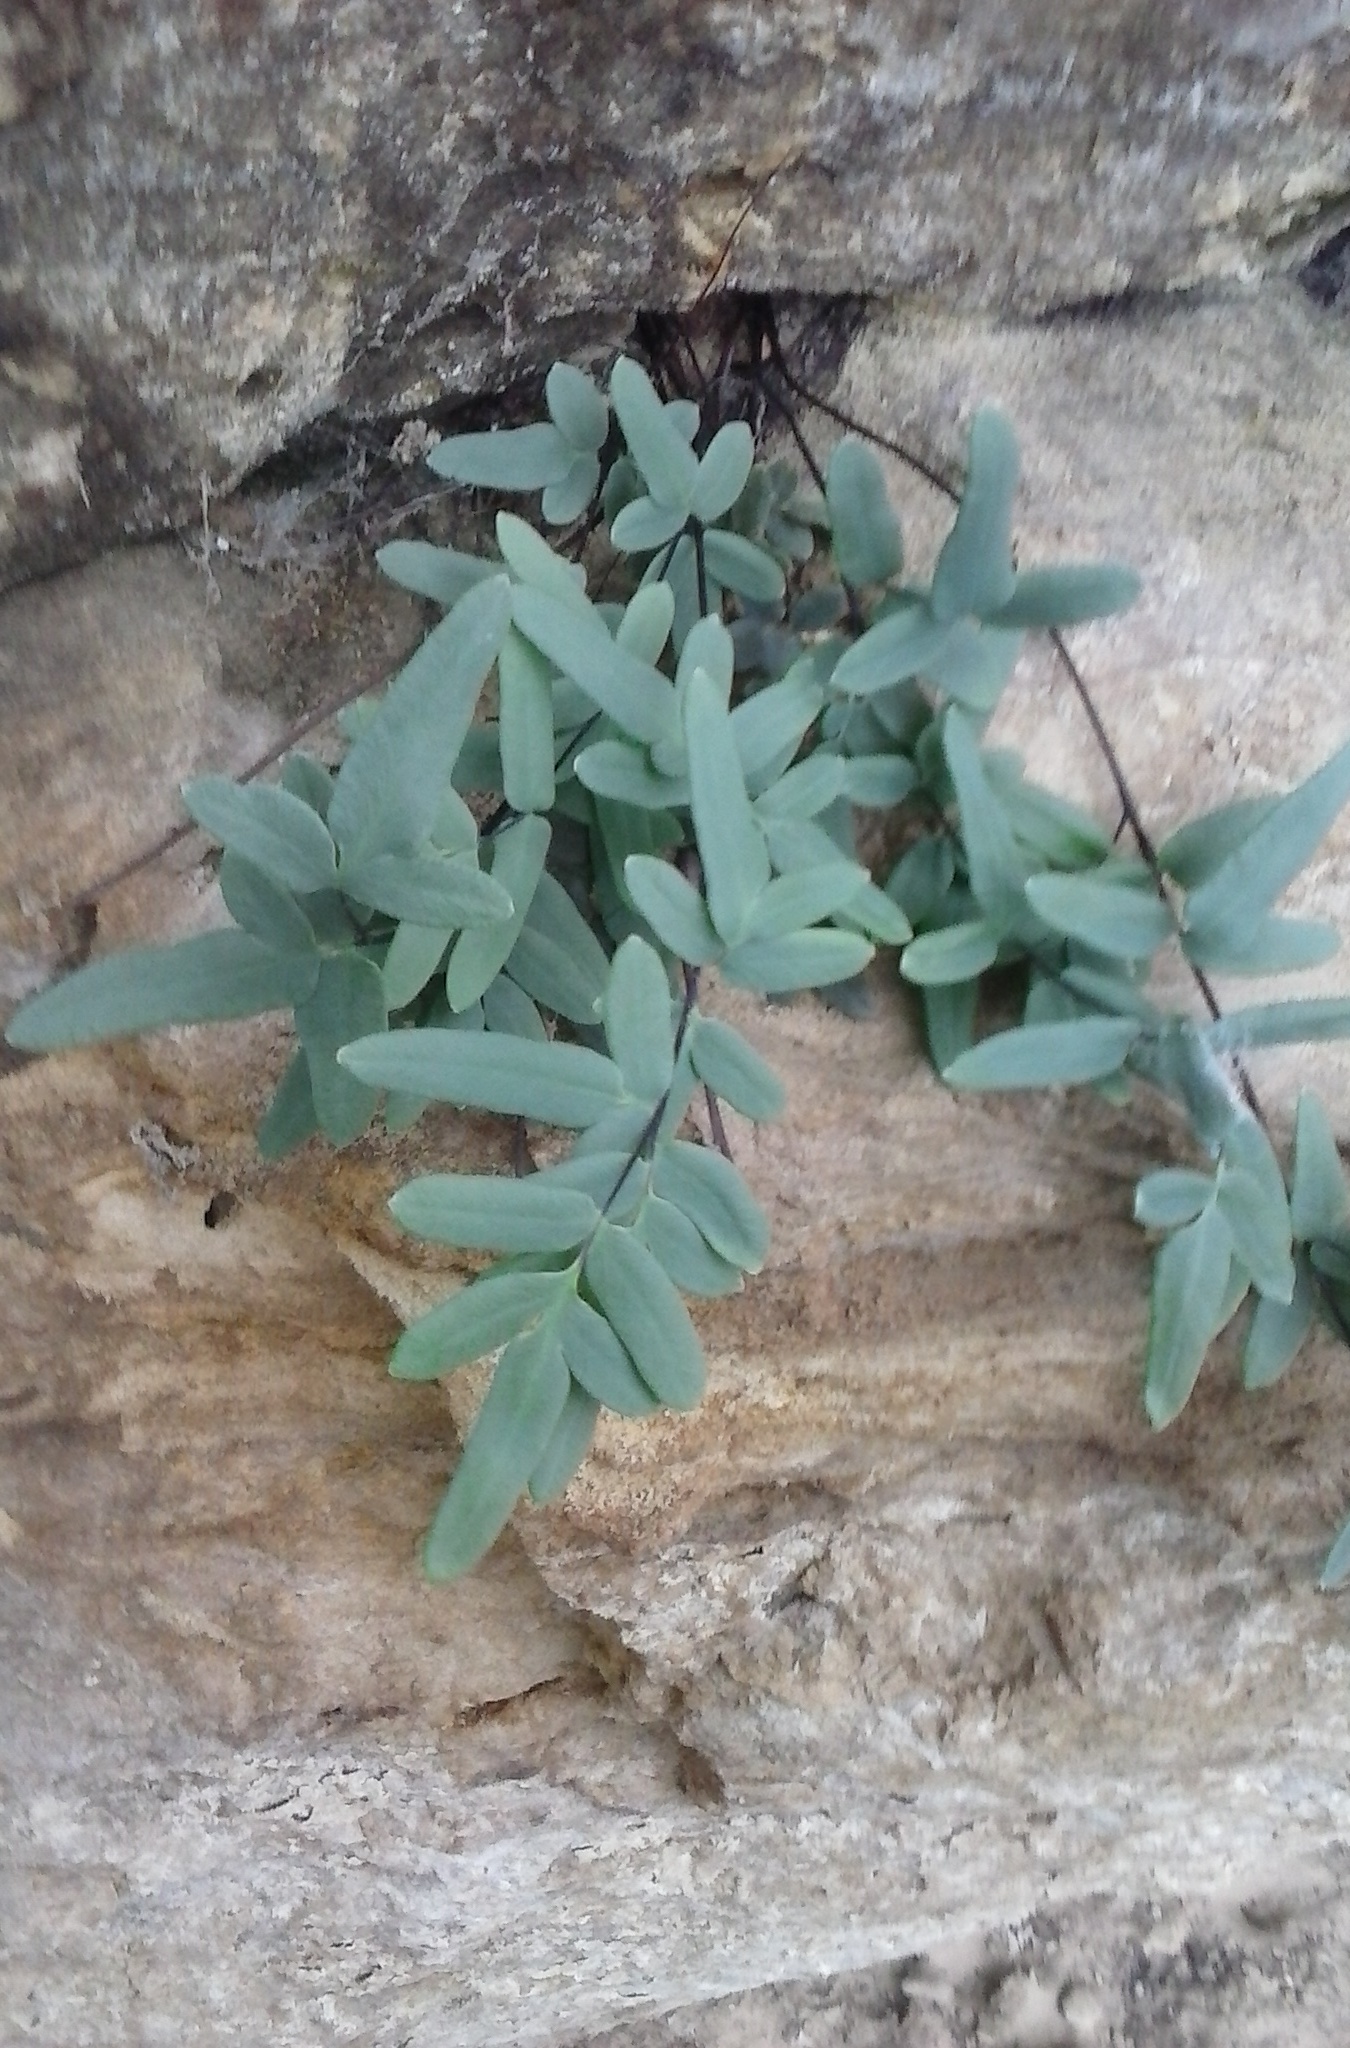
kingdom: Plantae
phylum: Tracheophyta
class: Polypodiopsida
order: Polypodiales
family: Pteridaceae
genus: Pellaea
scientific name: Pellaea glabella
